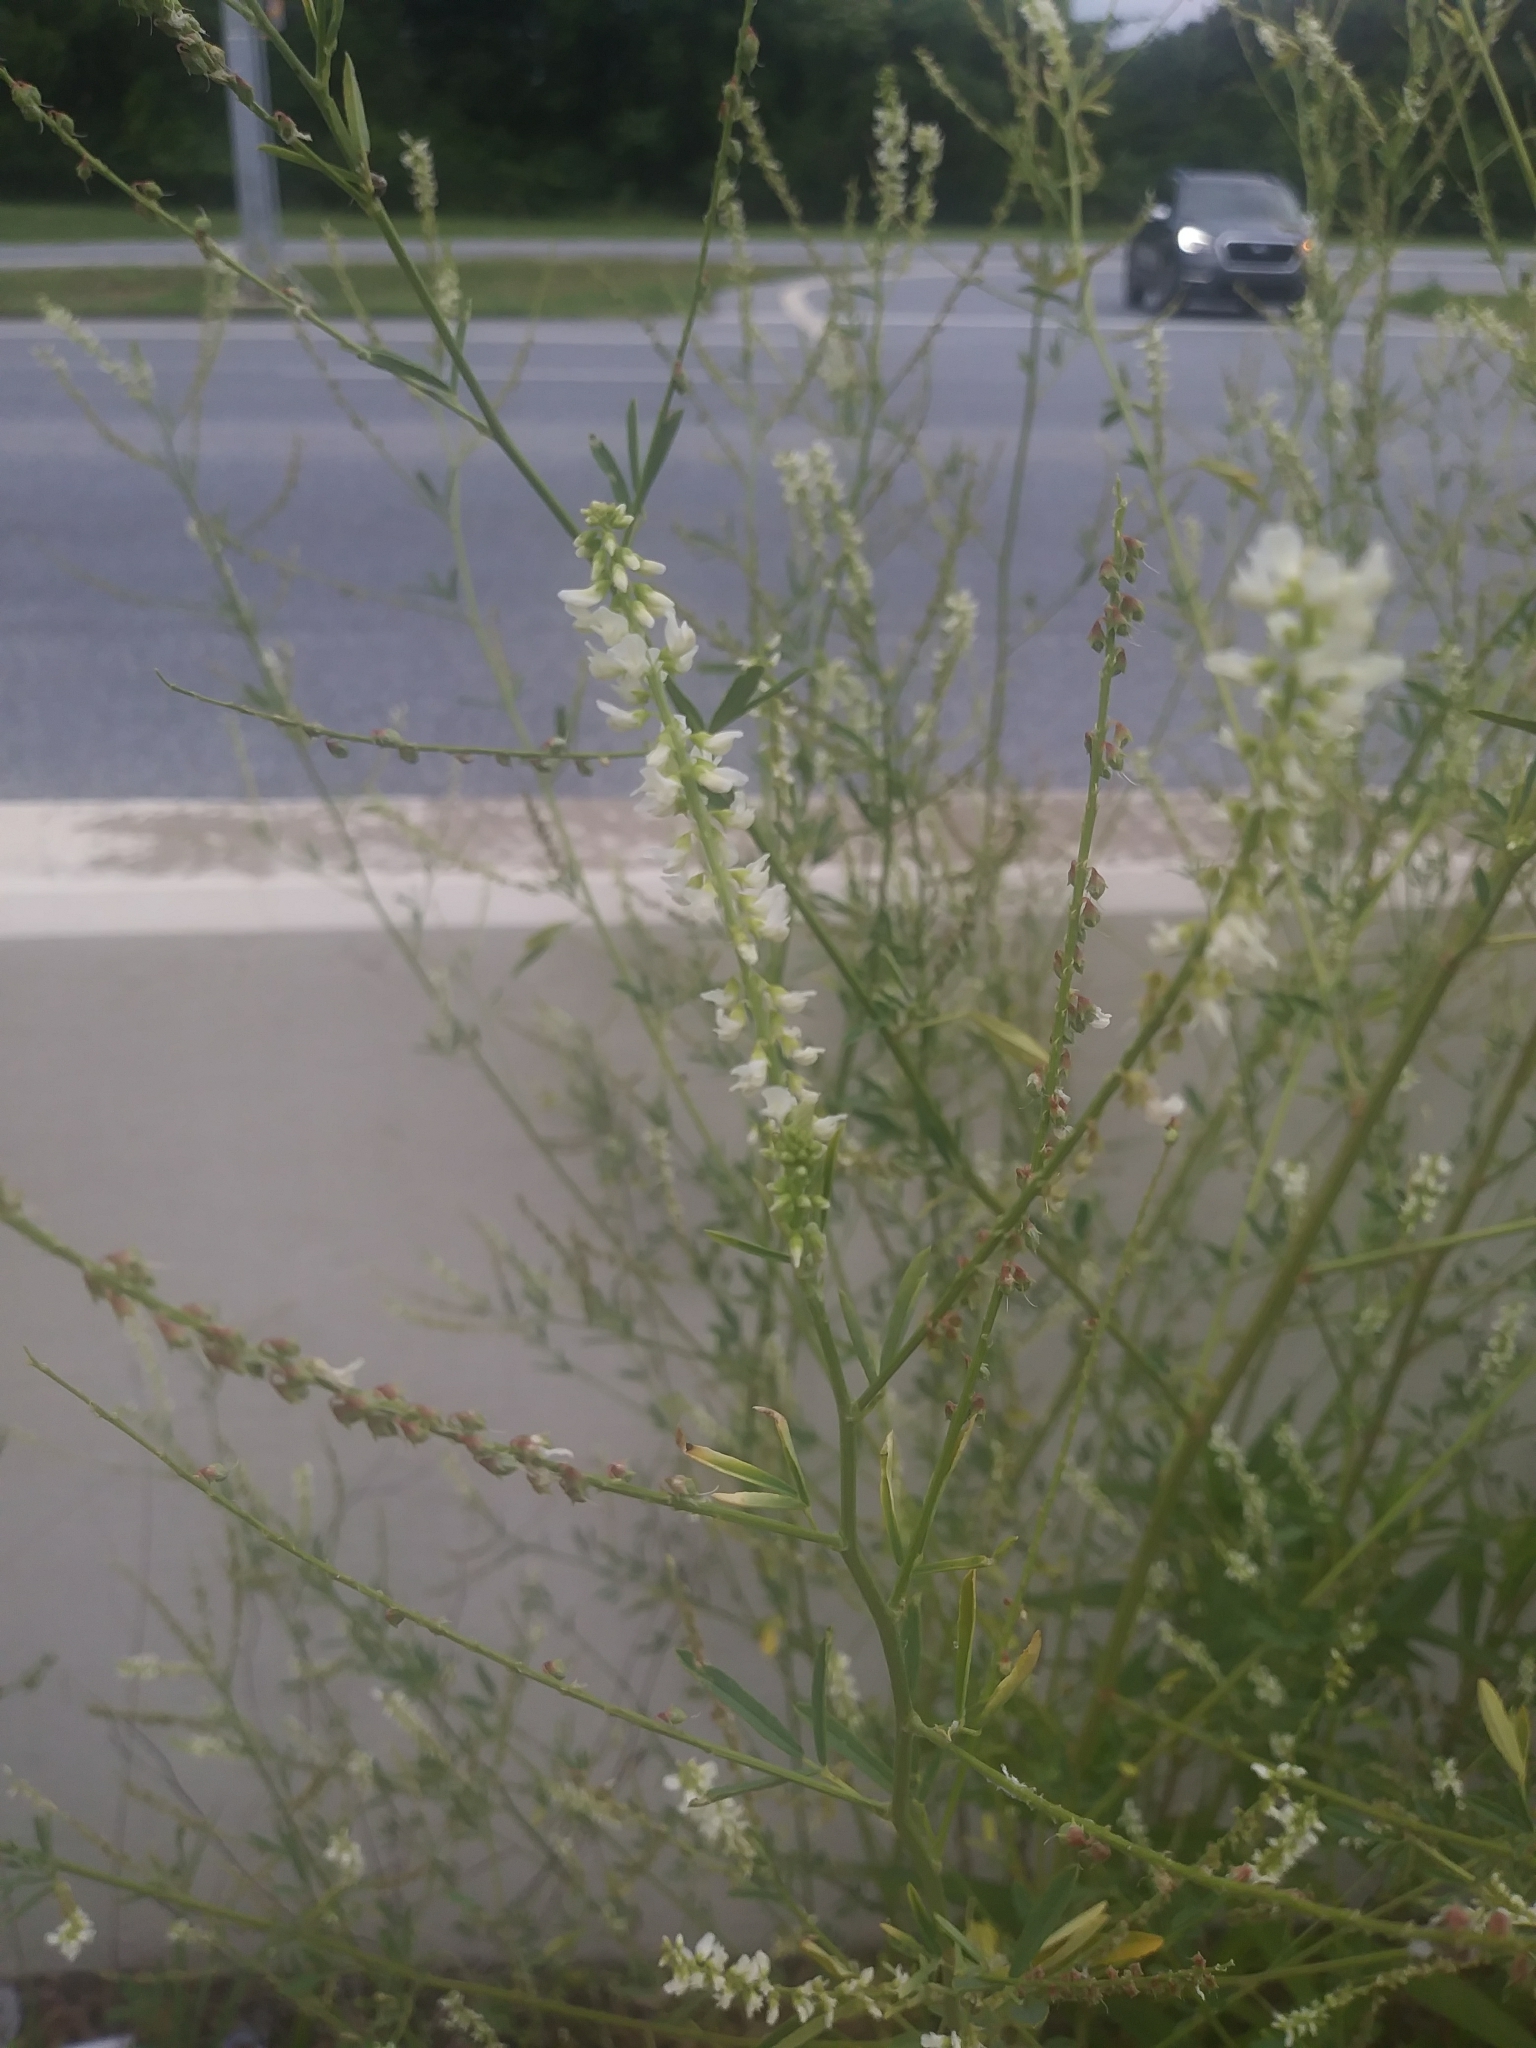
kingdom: Plantae
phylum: Tracheophyta
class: Magnoliopsida
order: Fabales
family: Fabaceae
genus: Melilotus
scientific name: Melilotus albus
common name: White melilot
